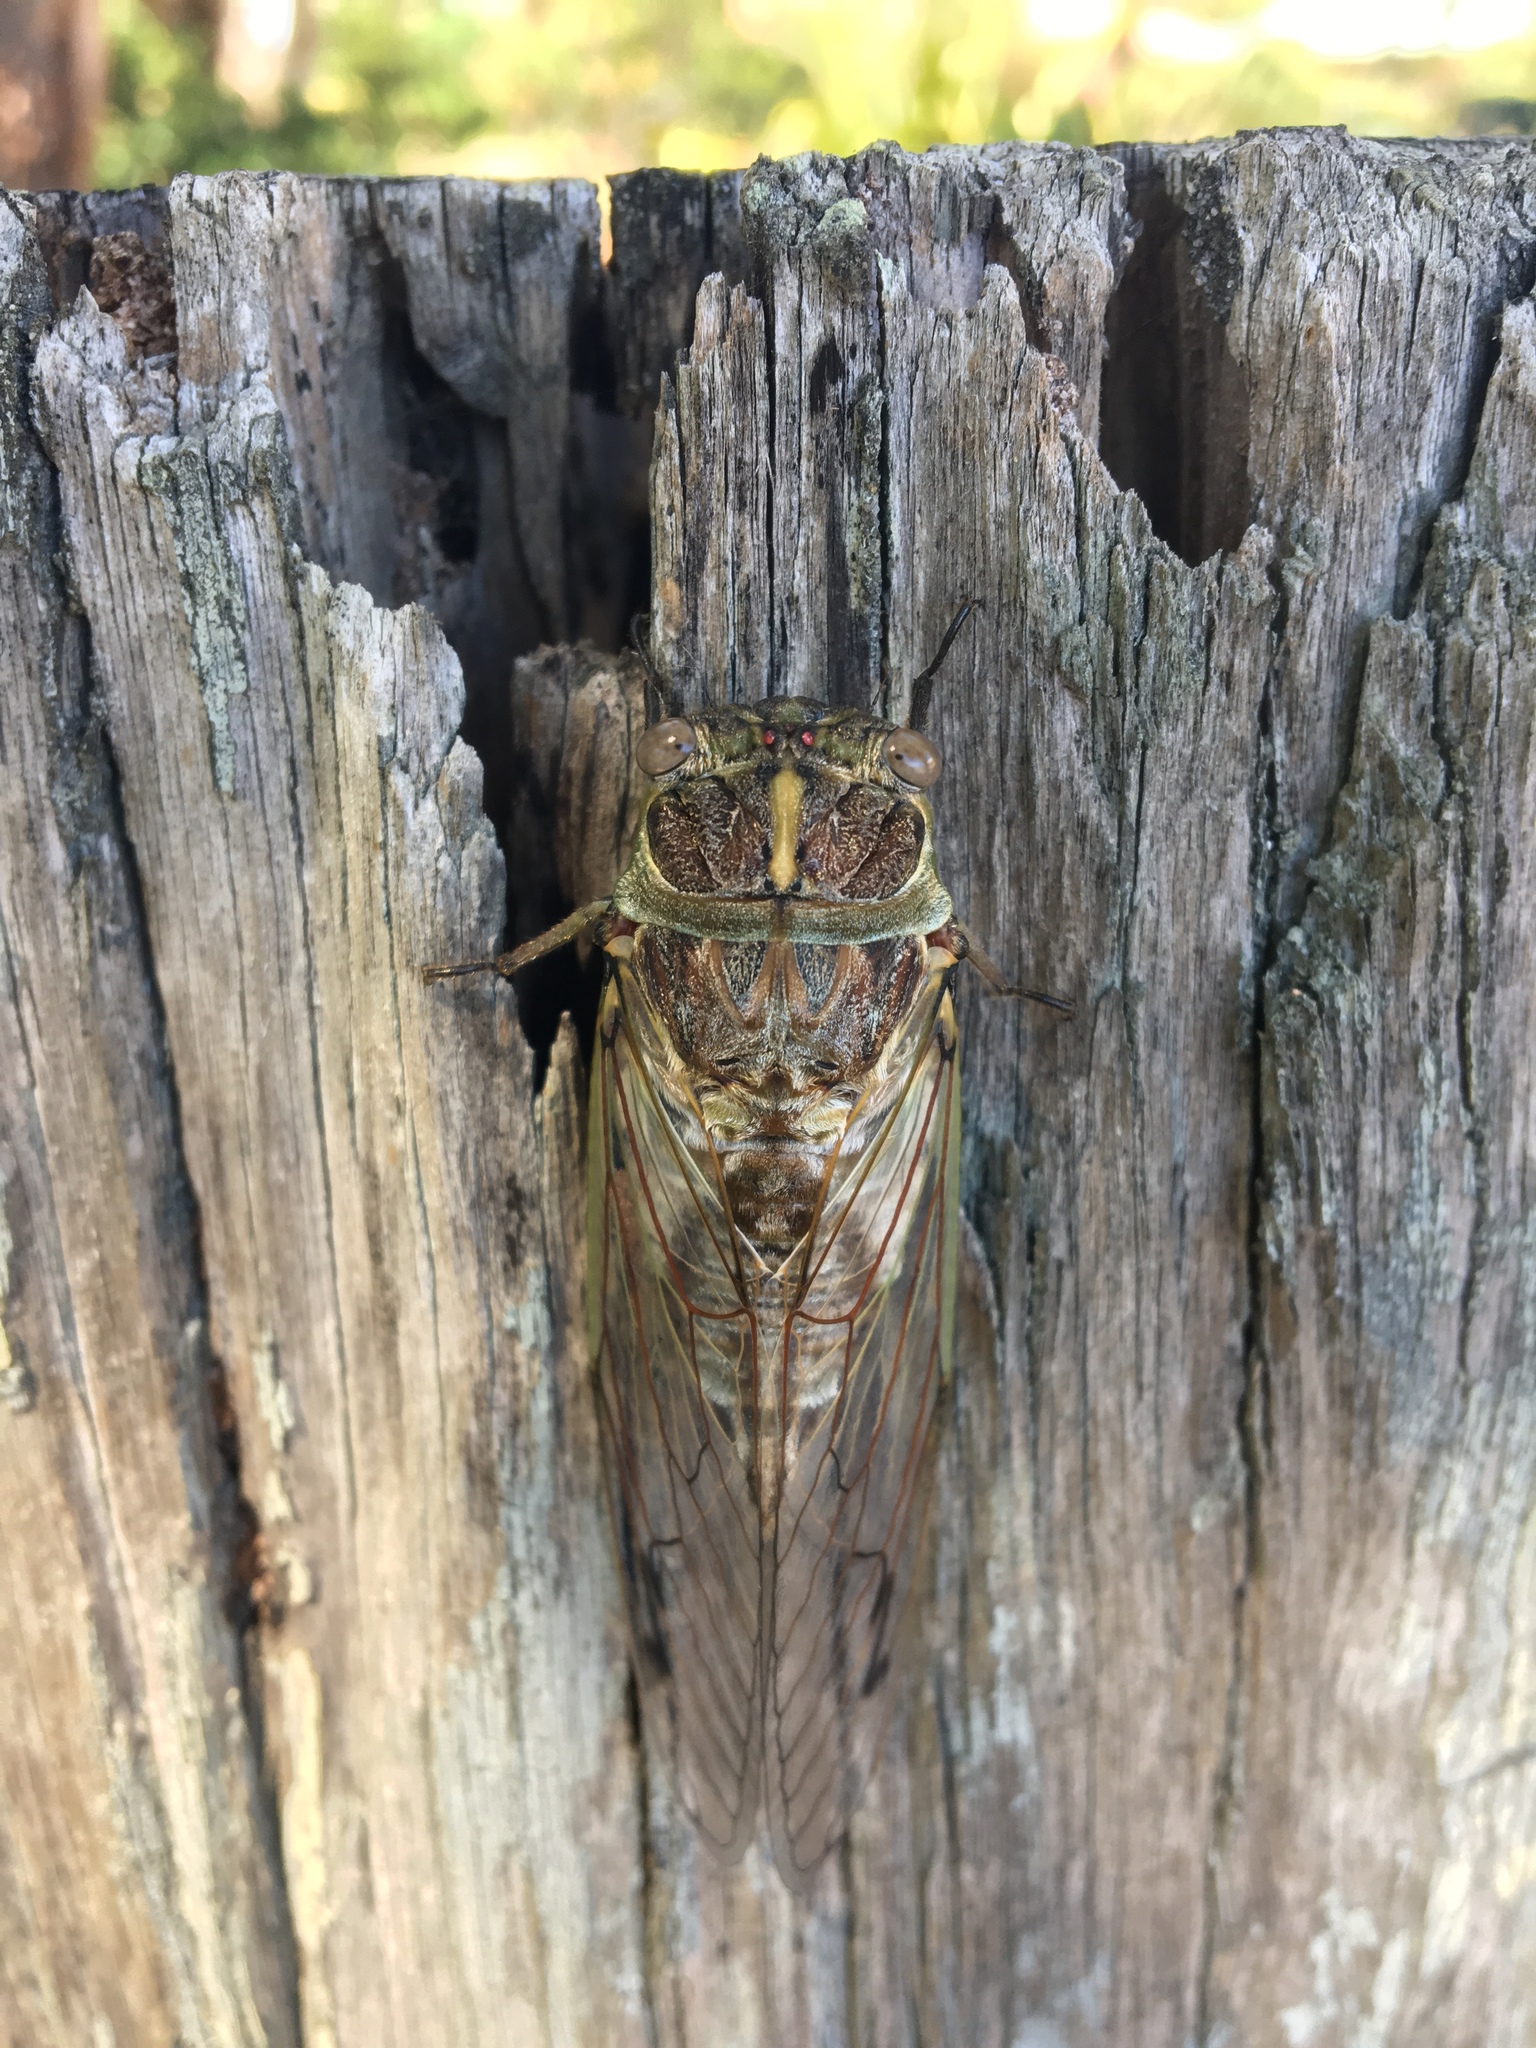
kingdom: Animalia
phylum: Arthropoda
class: Insecta
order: Hemiptera
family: Cicadidae
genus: Arunta
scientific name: Arunta perulata
